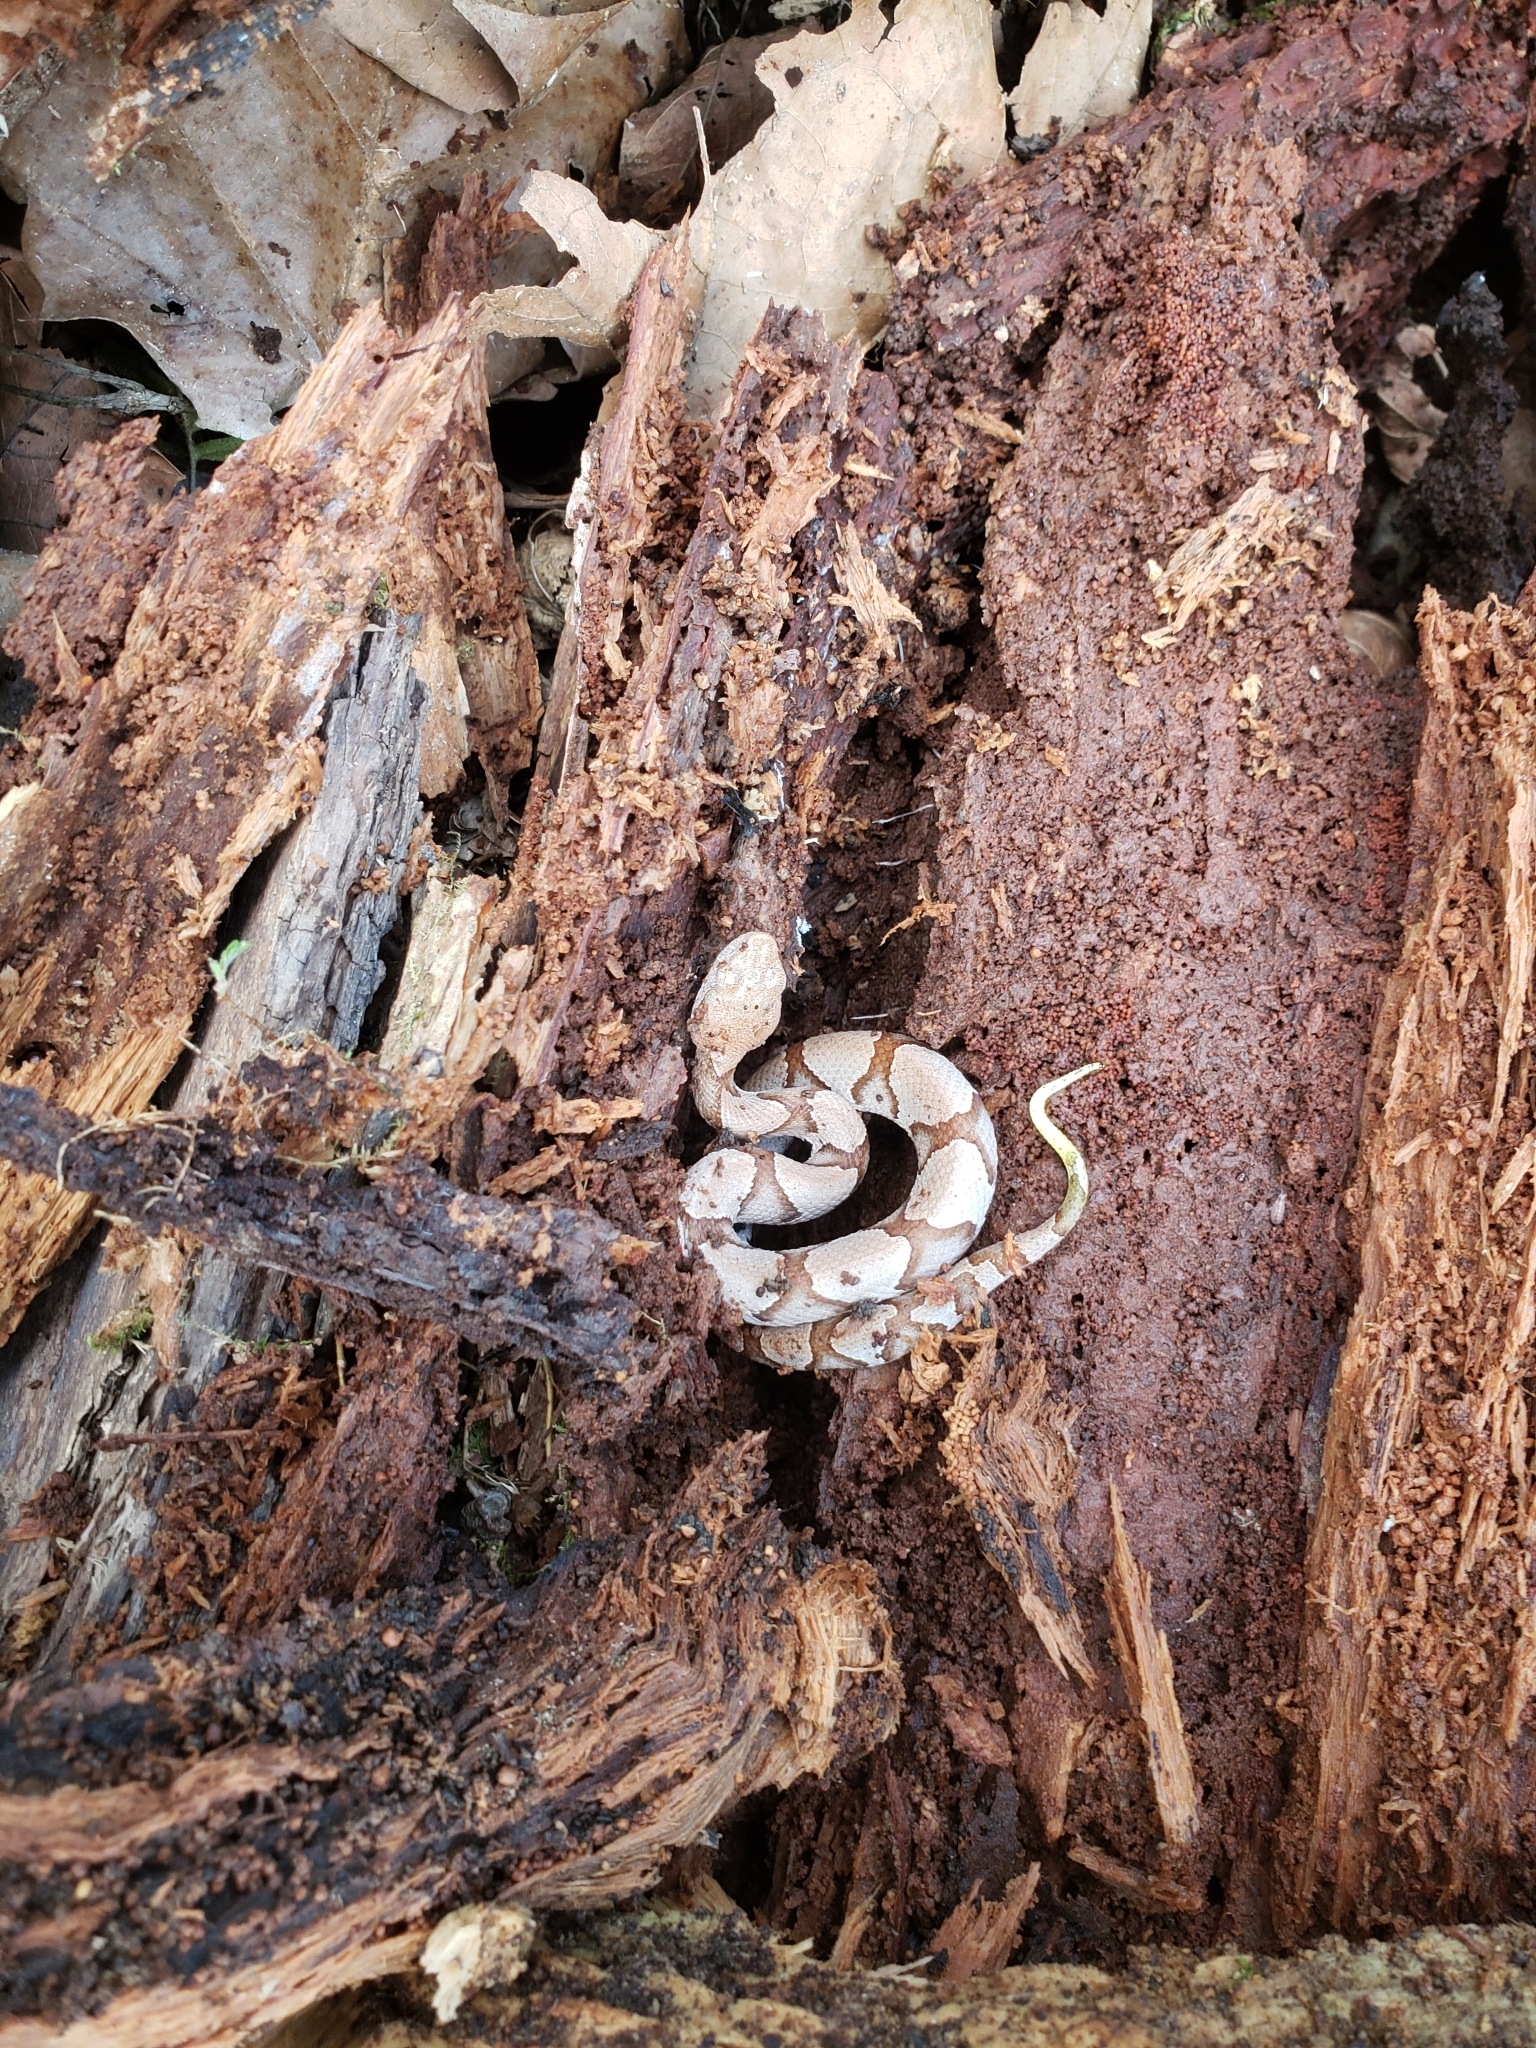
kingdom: Animalia
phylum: Chordata
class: Squamata
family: Viperidae
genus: Agkistrodon
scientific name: Agkistrodon contortrix
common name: Northern copperhead
